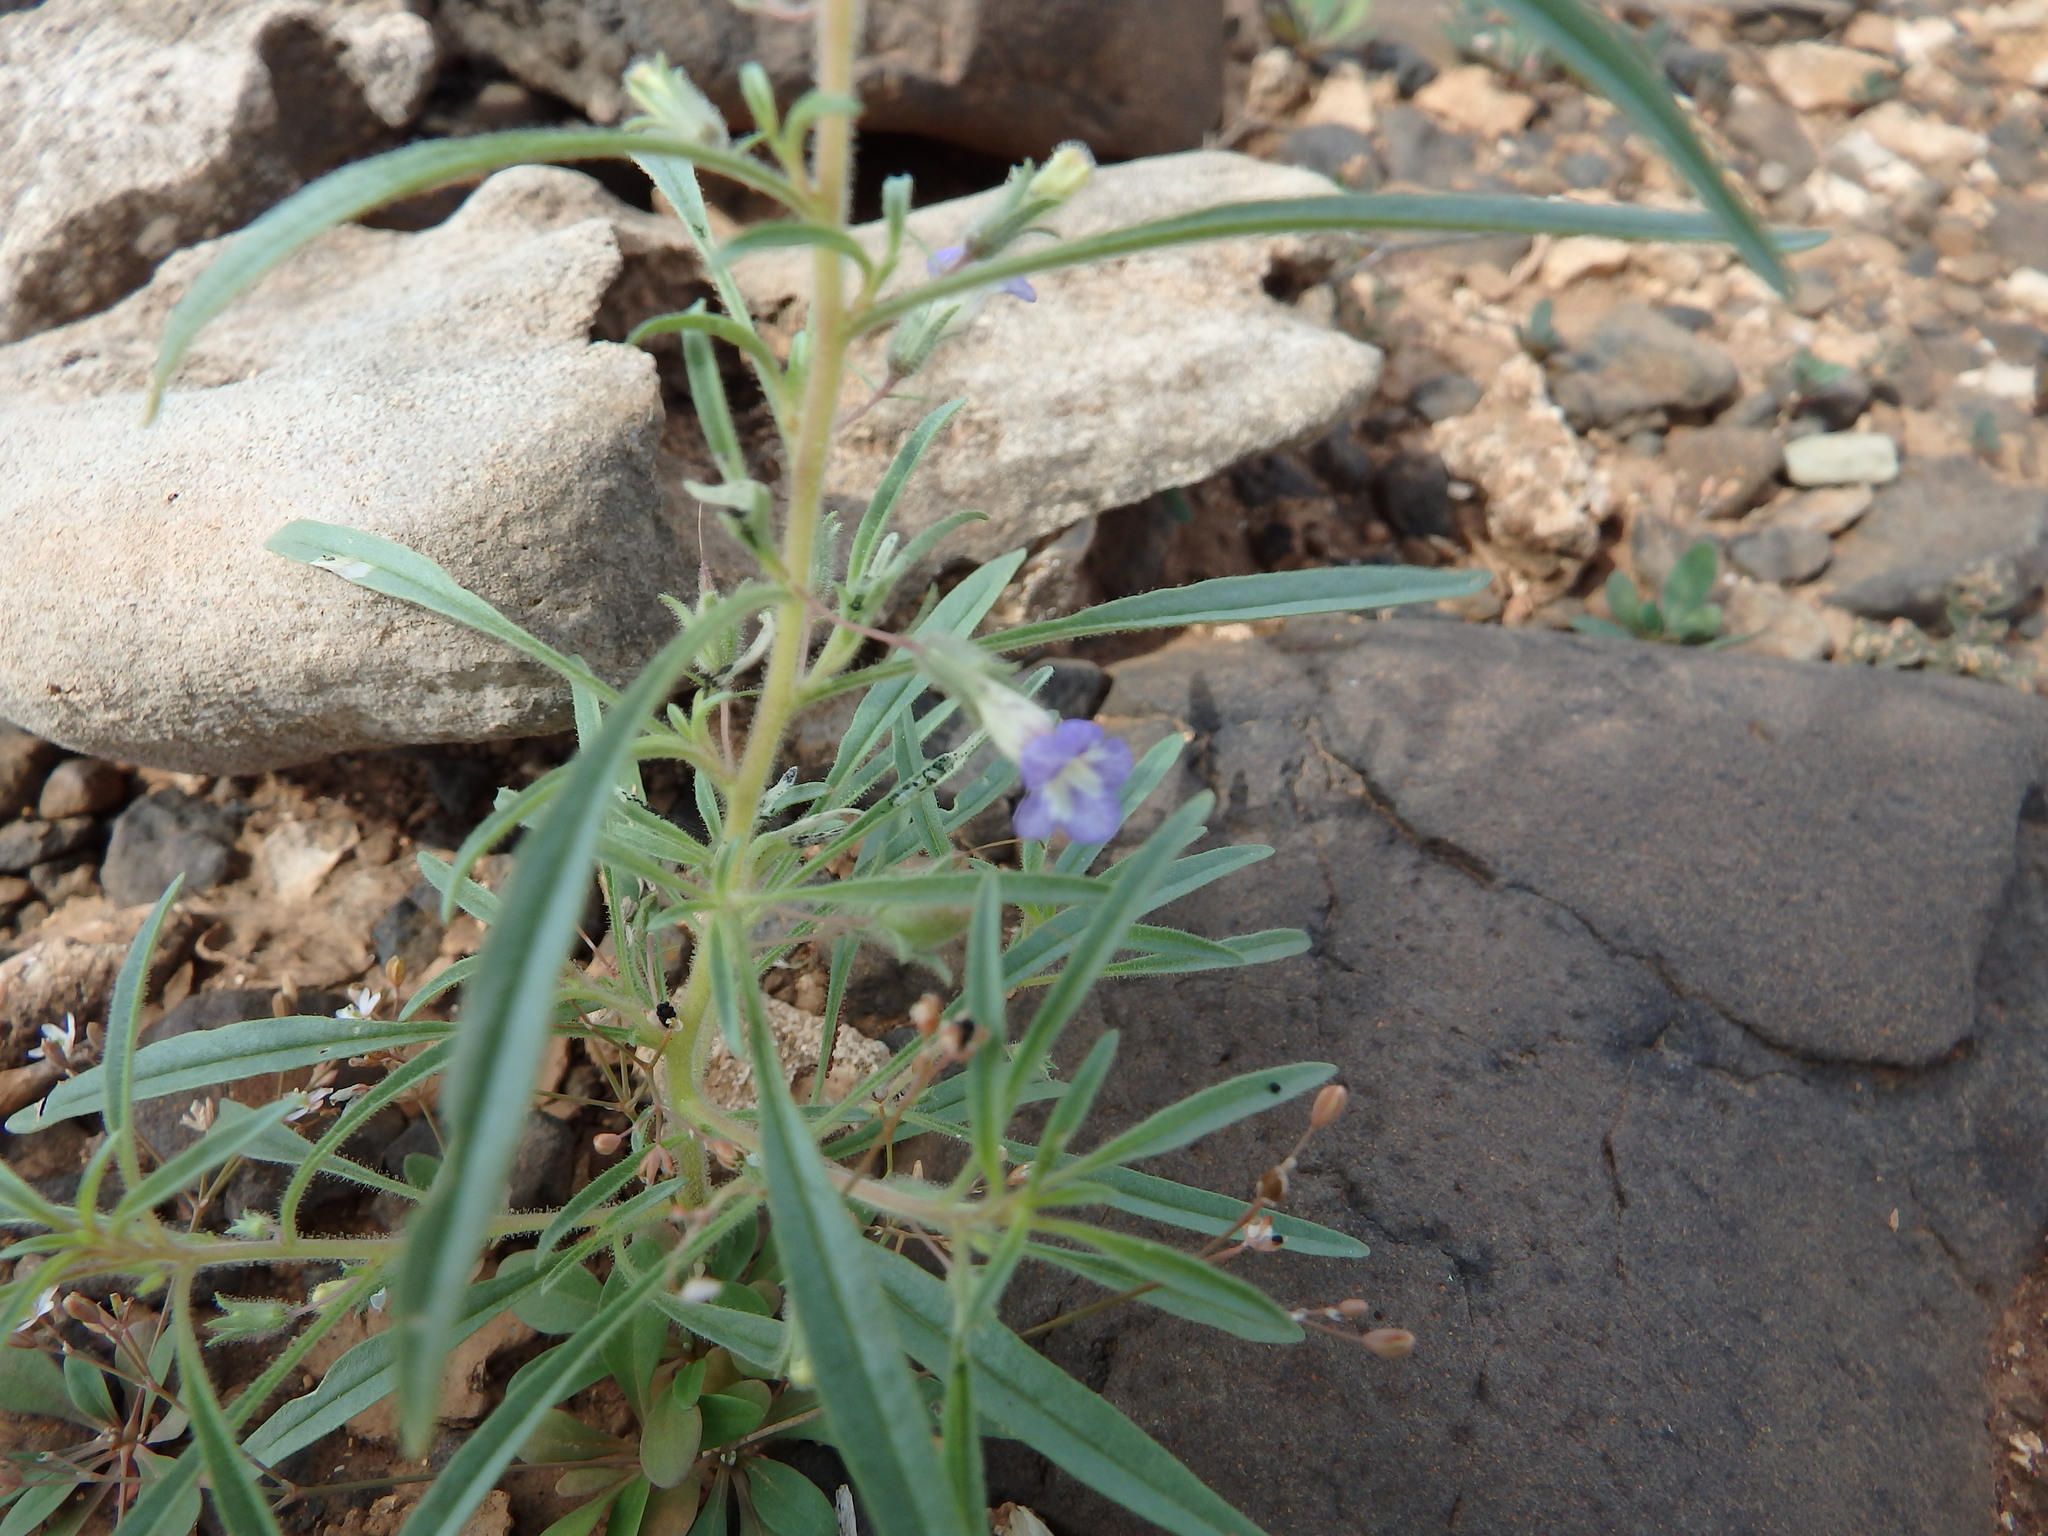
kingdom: Plantae
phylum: Tracheophyta
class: Magnoliopsida
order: Lamiales
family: Scrophulariaceae
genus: Anticharis
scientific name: Anticharis senegalensis
